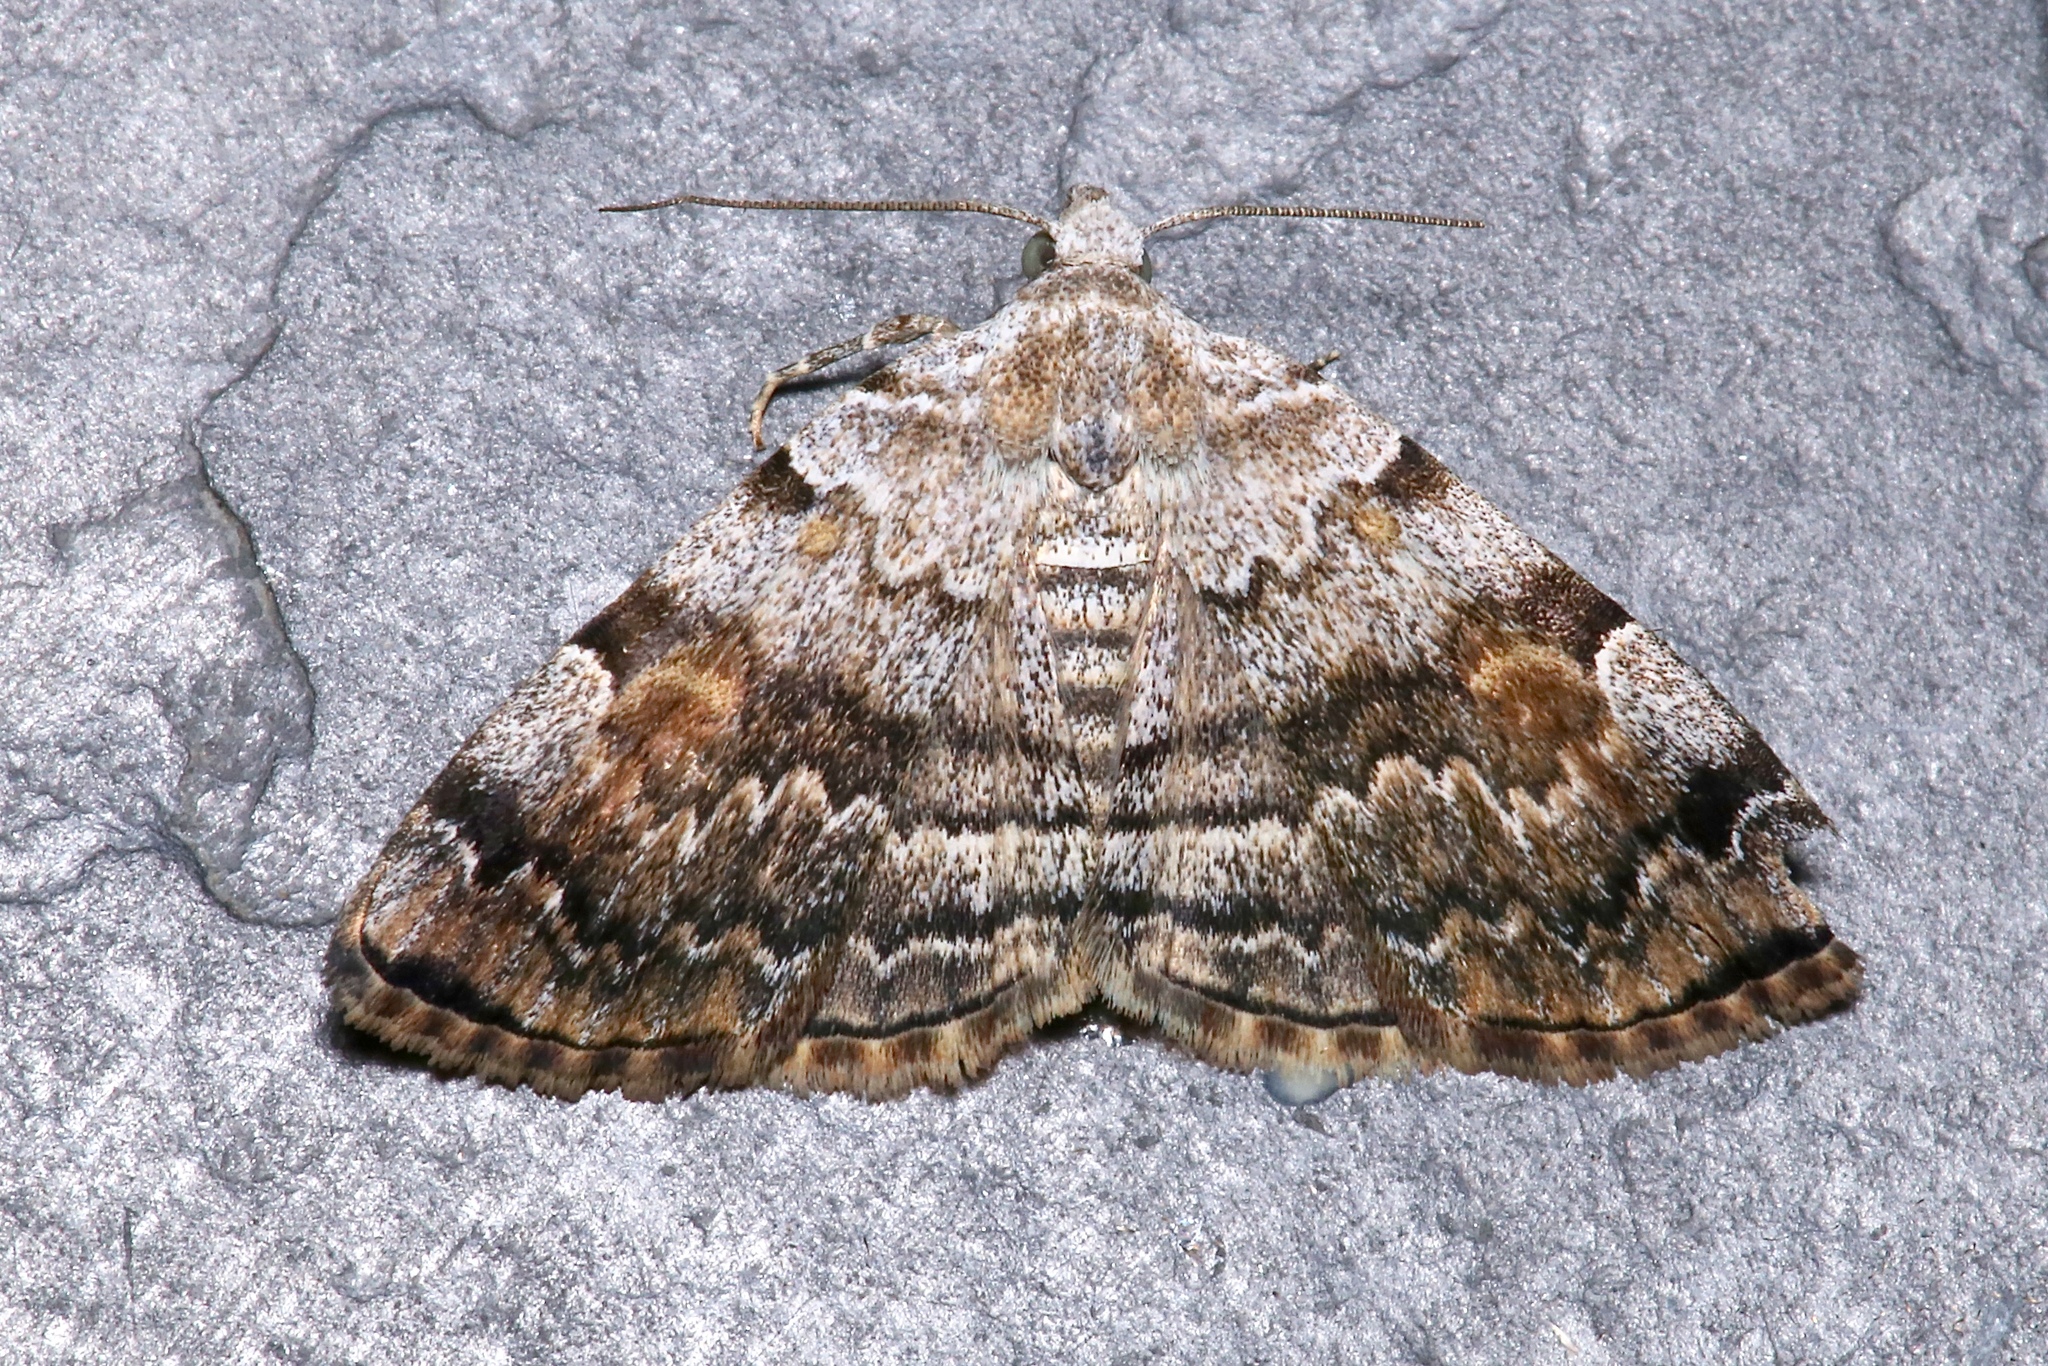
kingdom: Animalia
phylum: Arthropoda
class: Insecta
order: Lepidoptera
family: Erebidae
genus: Idia
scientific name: Idia americalis
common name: American idia moth
